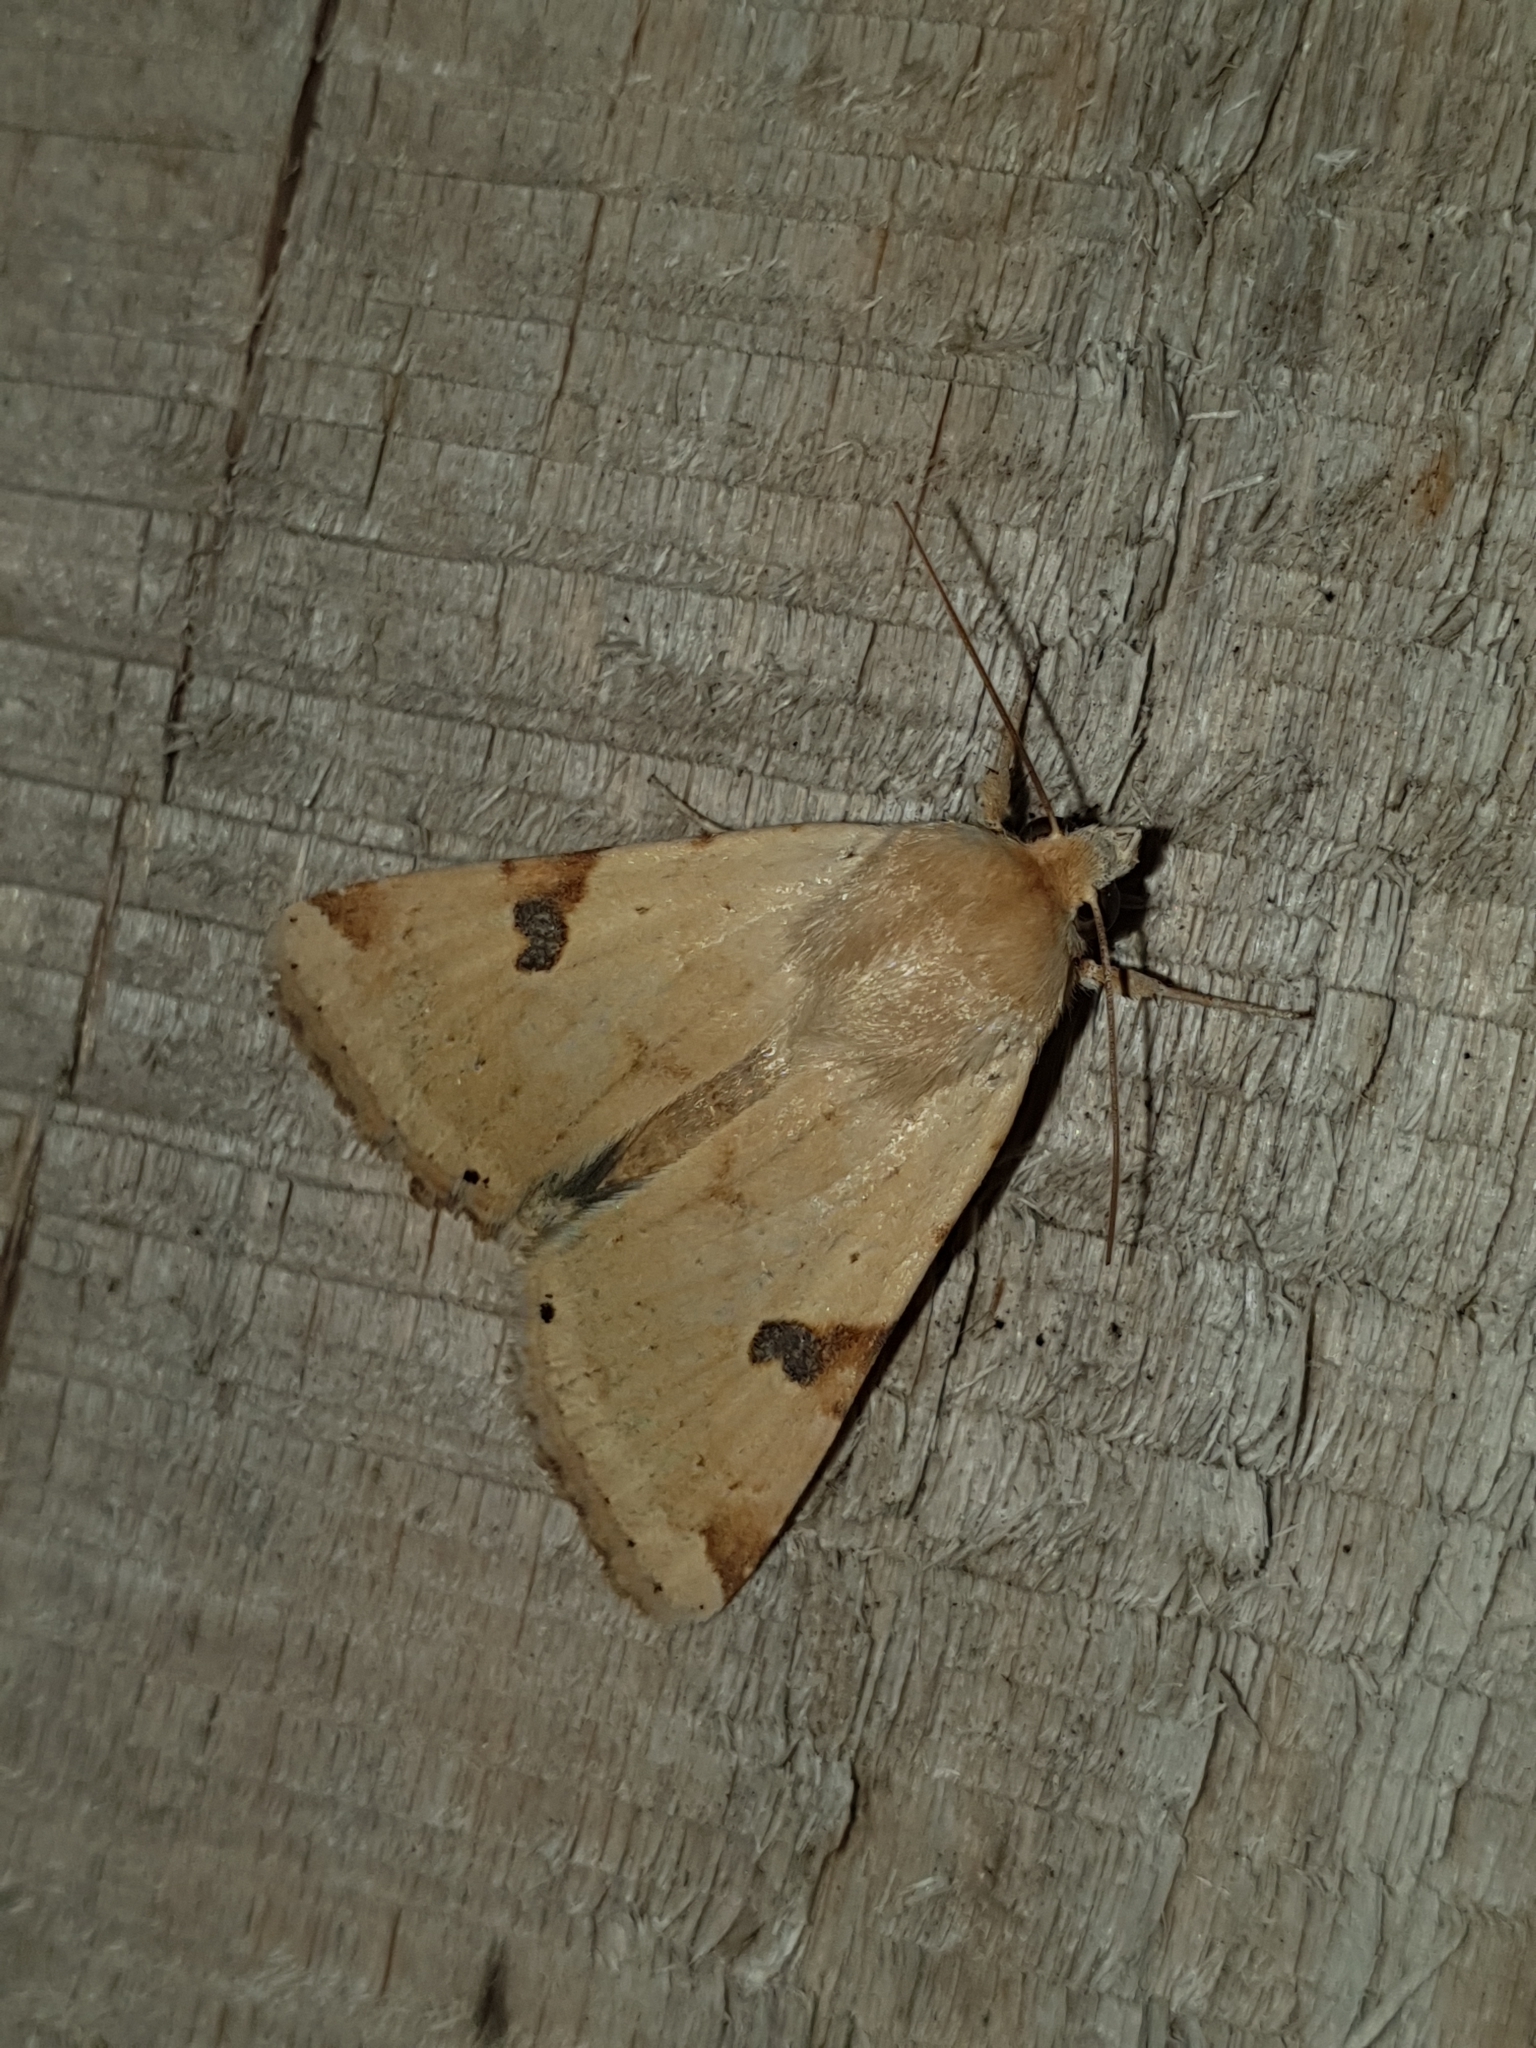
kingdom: Animalia
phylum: Arthropoda
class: Insecta
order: Lepidoptera
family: Noctuidae
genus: Heliothis
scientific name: Heliothis peltigera
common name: Bordered straw
